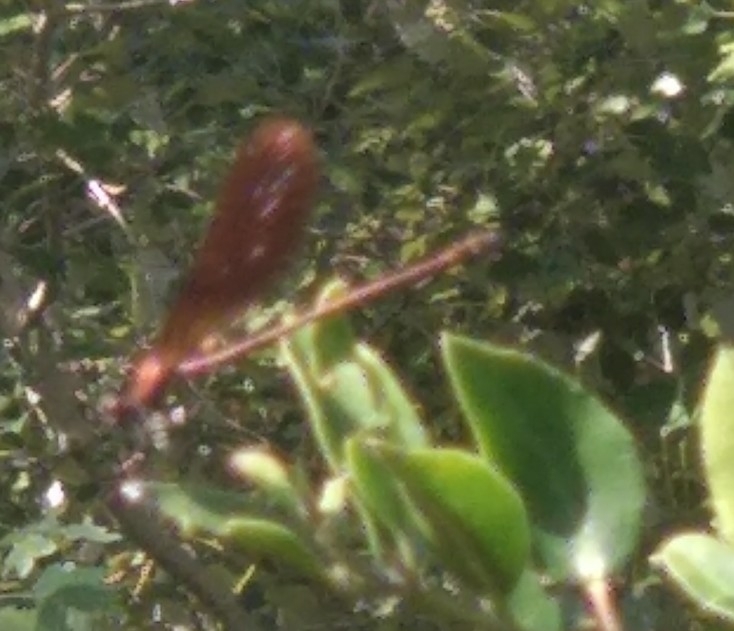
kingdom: Animalia
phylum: Arthropoda
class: Insecta
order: Odonata
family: Calopterygidae
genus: Calopteryx
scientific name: Calopteryx haemorrhoidalis
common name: Copper demoiselle
